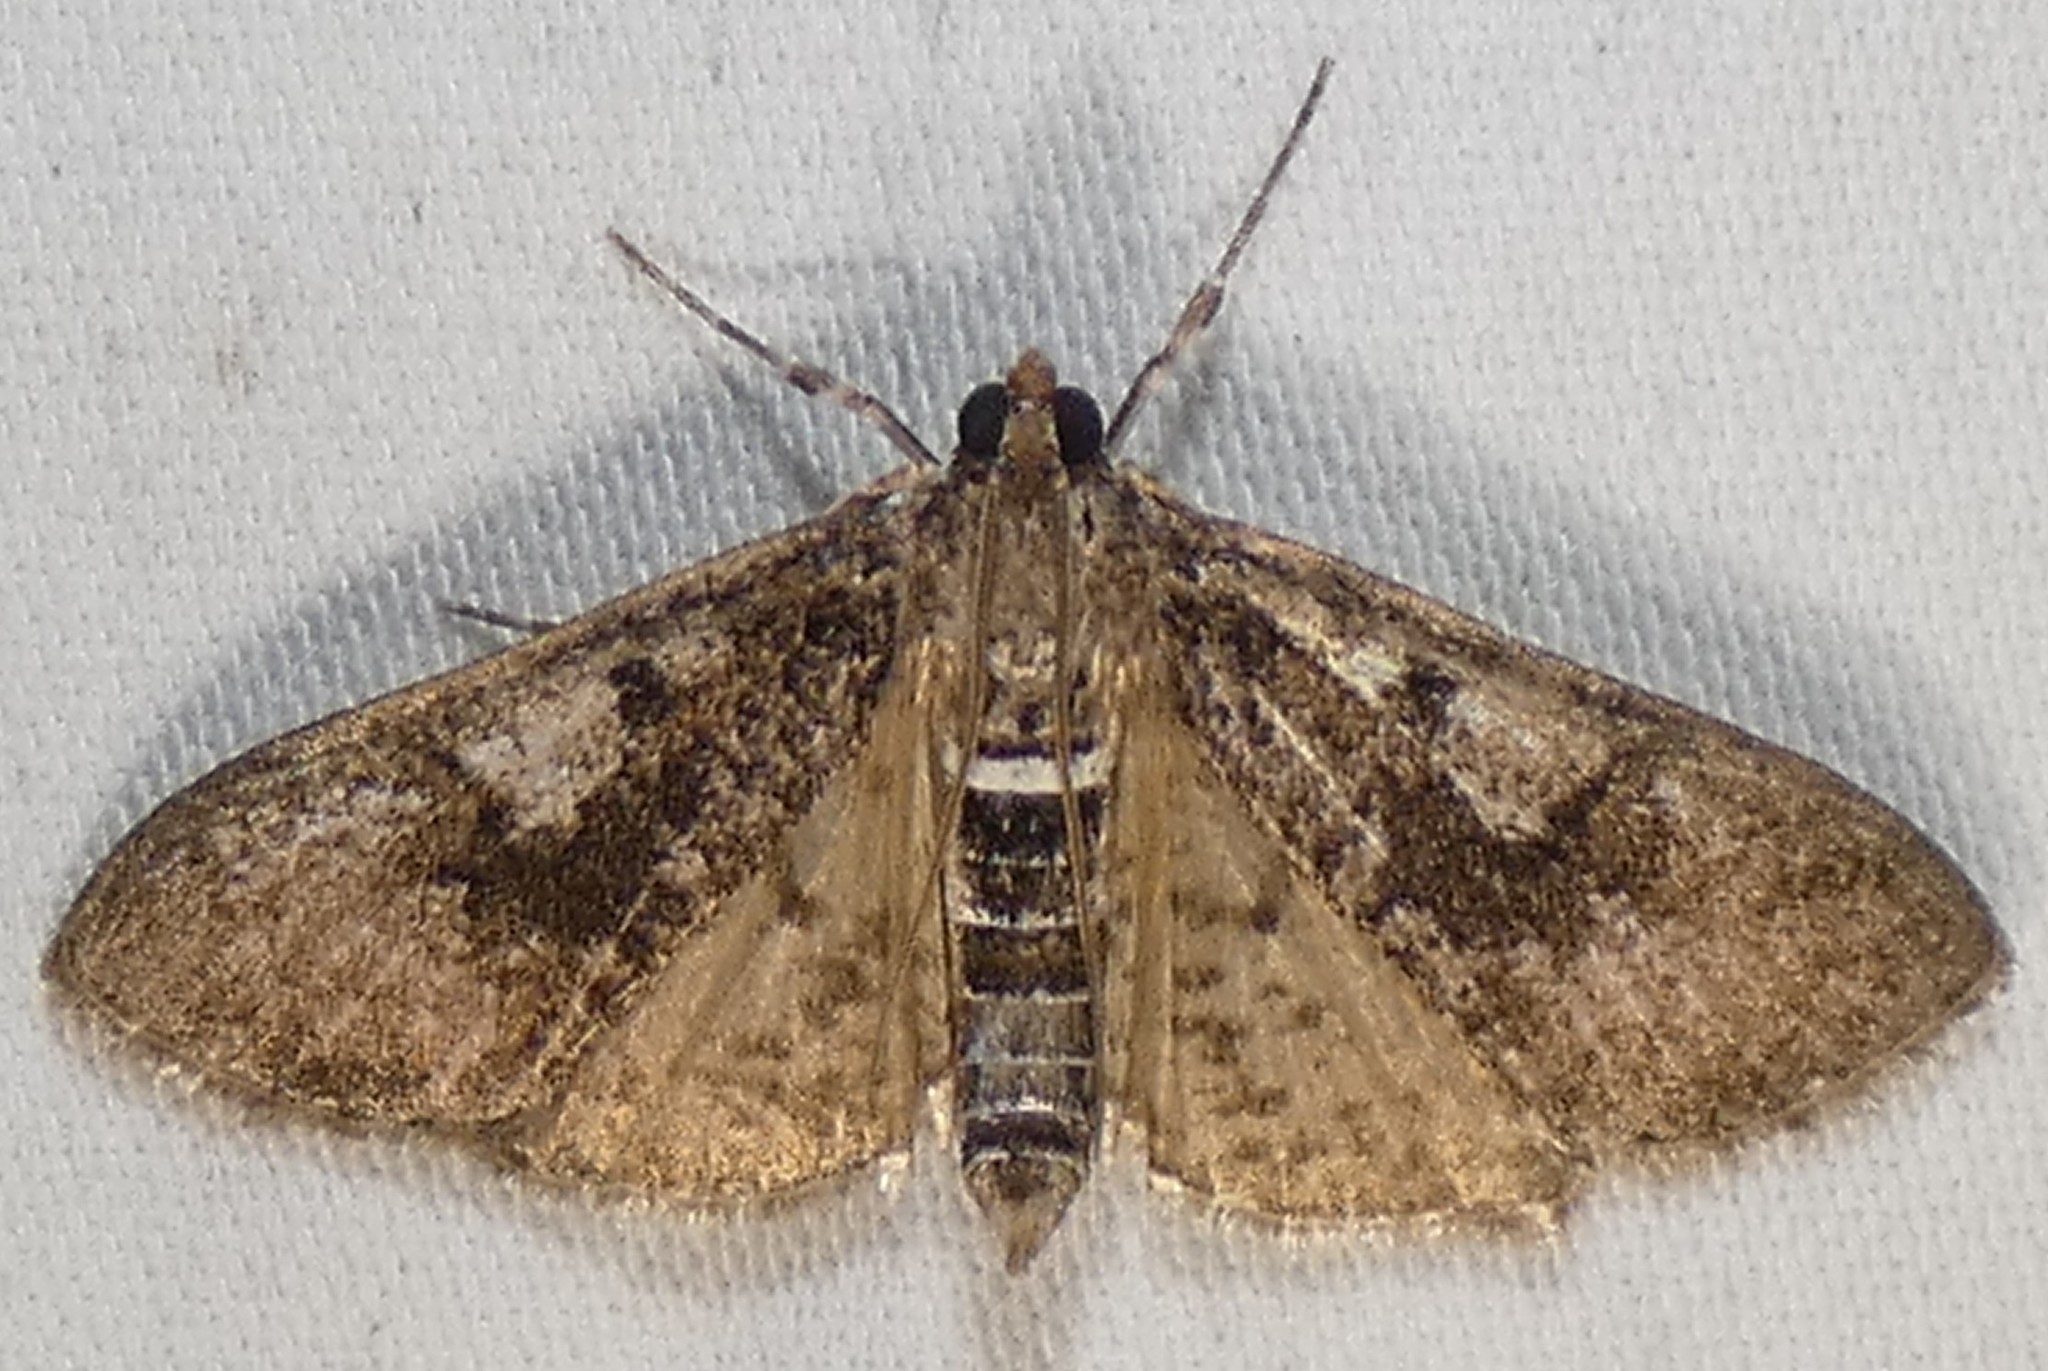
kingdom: Animalia
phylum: Arthropoda
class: Insecta
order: Lepidoptera
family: Crambidae
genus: Palpita
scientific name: Palpita magniferalis
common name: Splendid palpita moth
